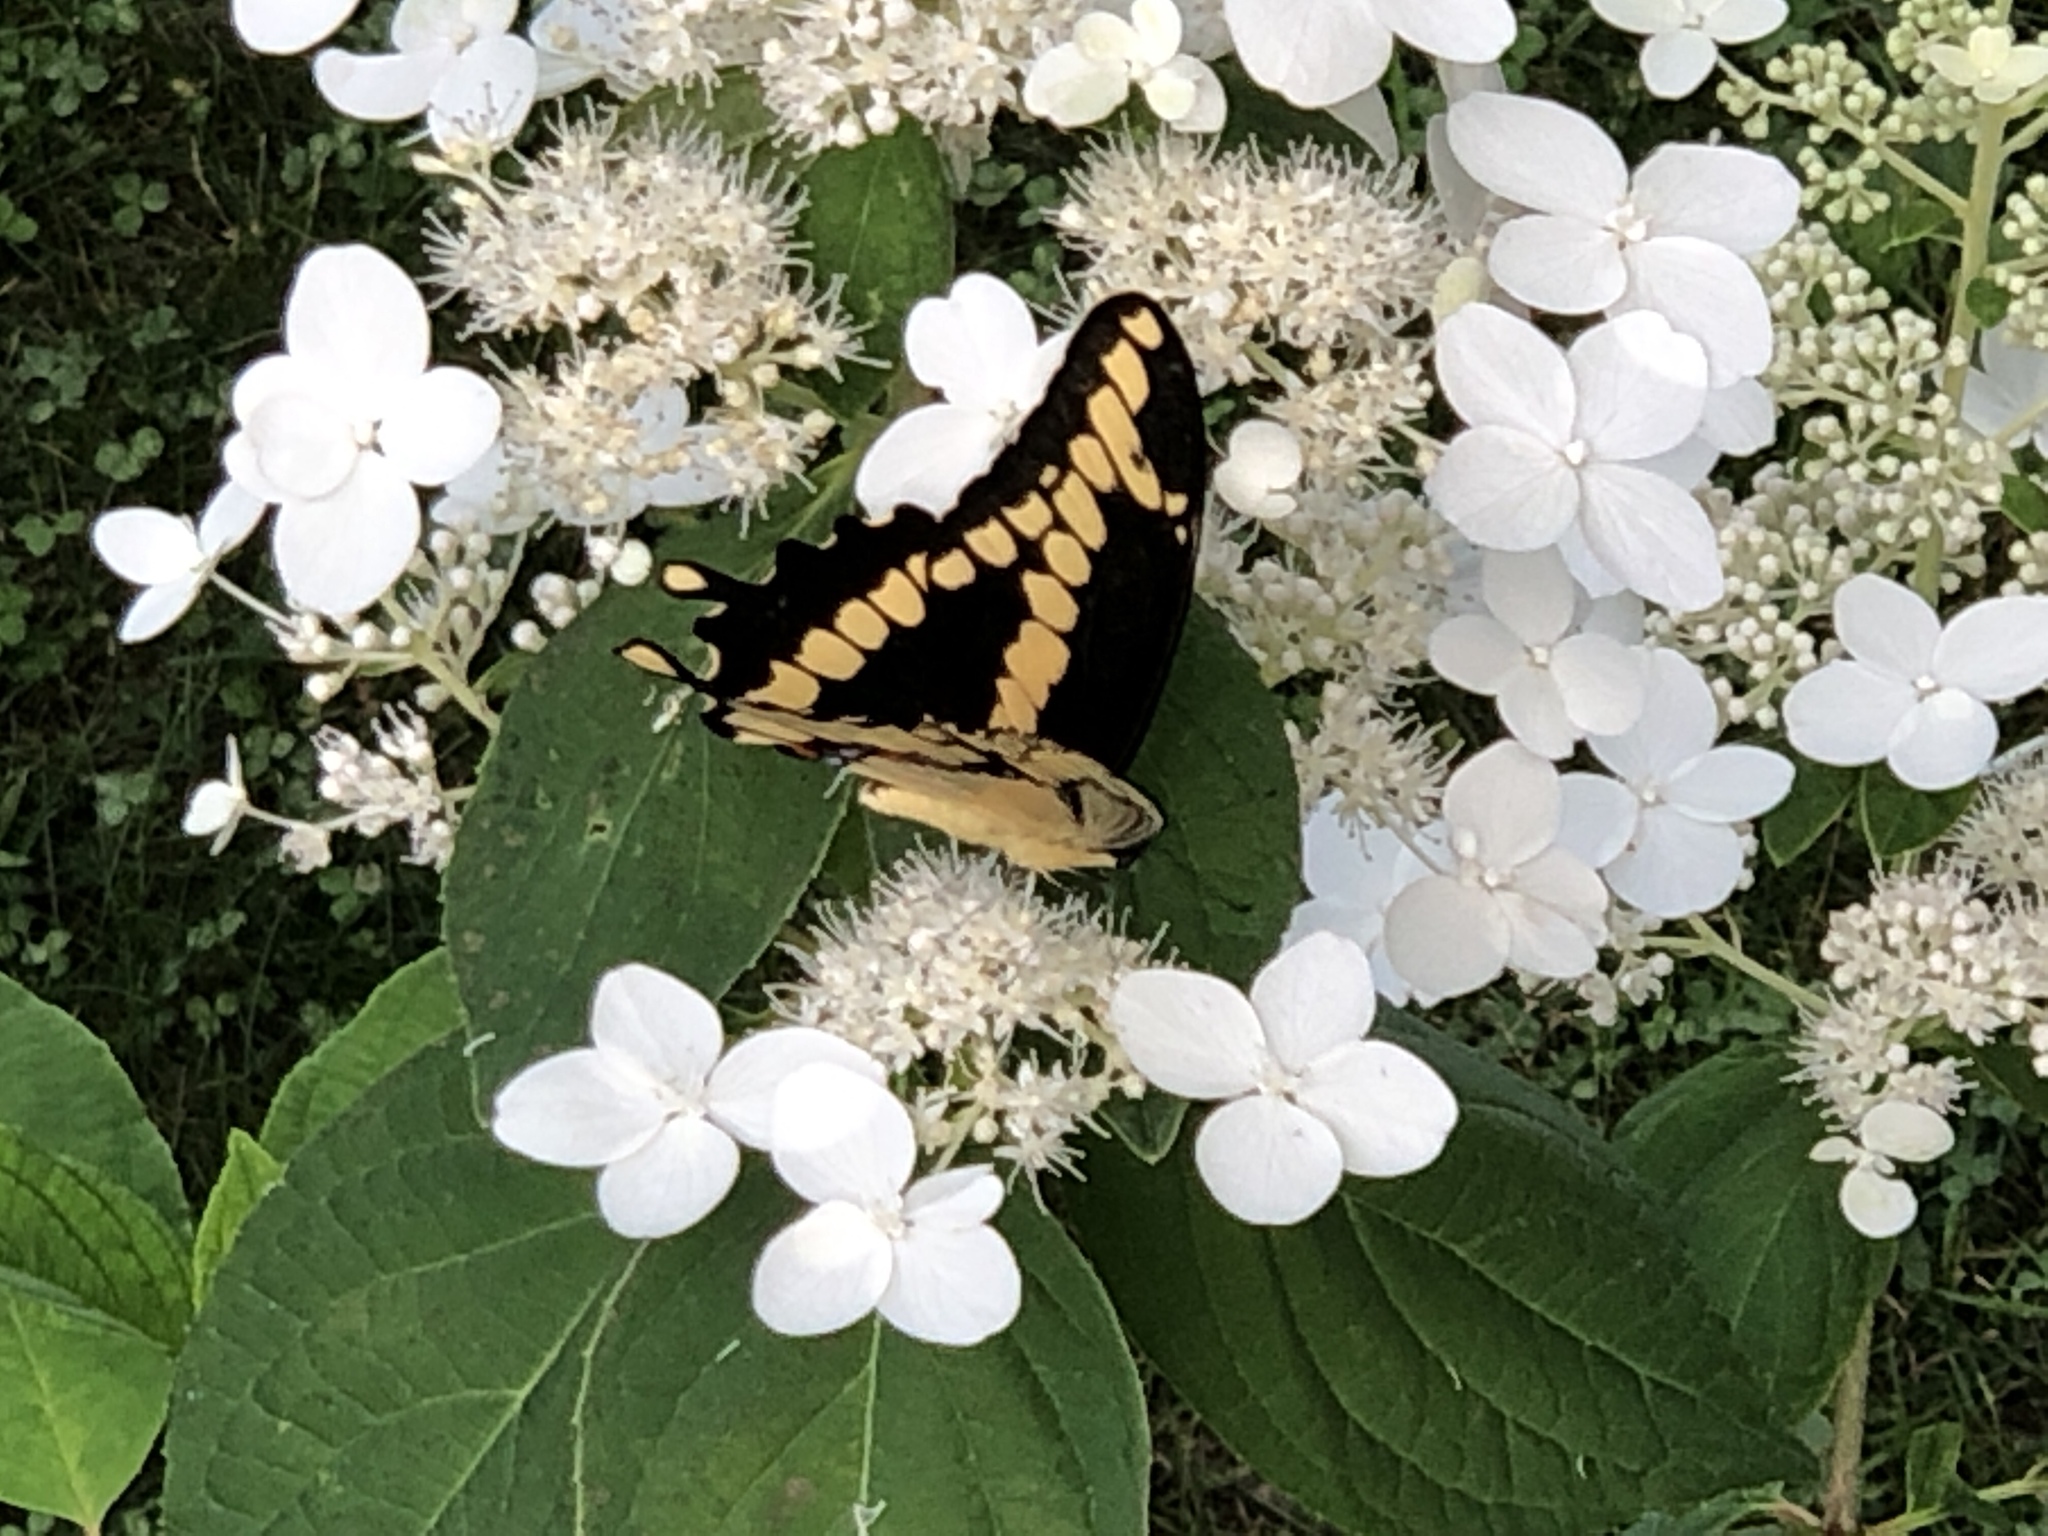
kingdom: Animalia
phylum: Arthropoda
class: Insecta
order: Lepidoptera
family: Papilionidae
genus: Papilio
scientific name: Papilio cresphontes
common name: Giant swallowtail
